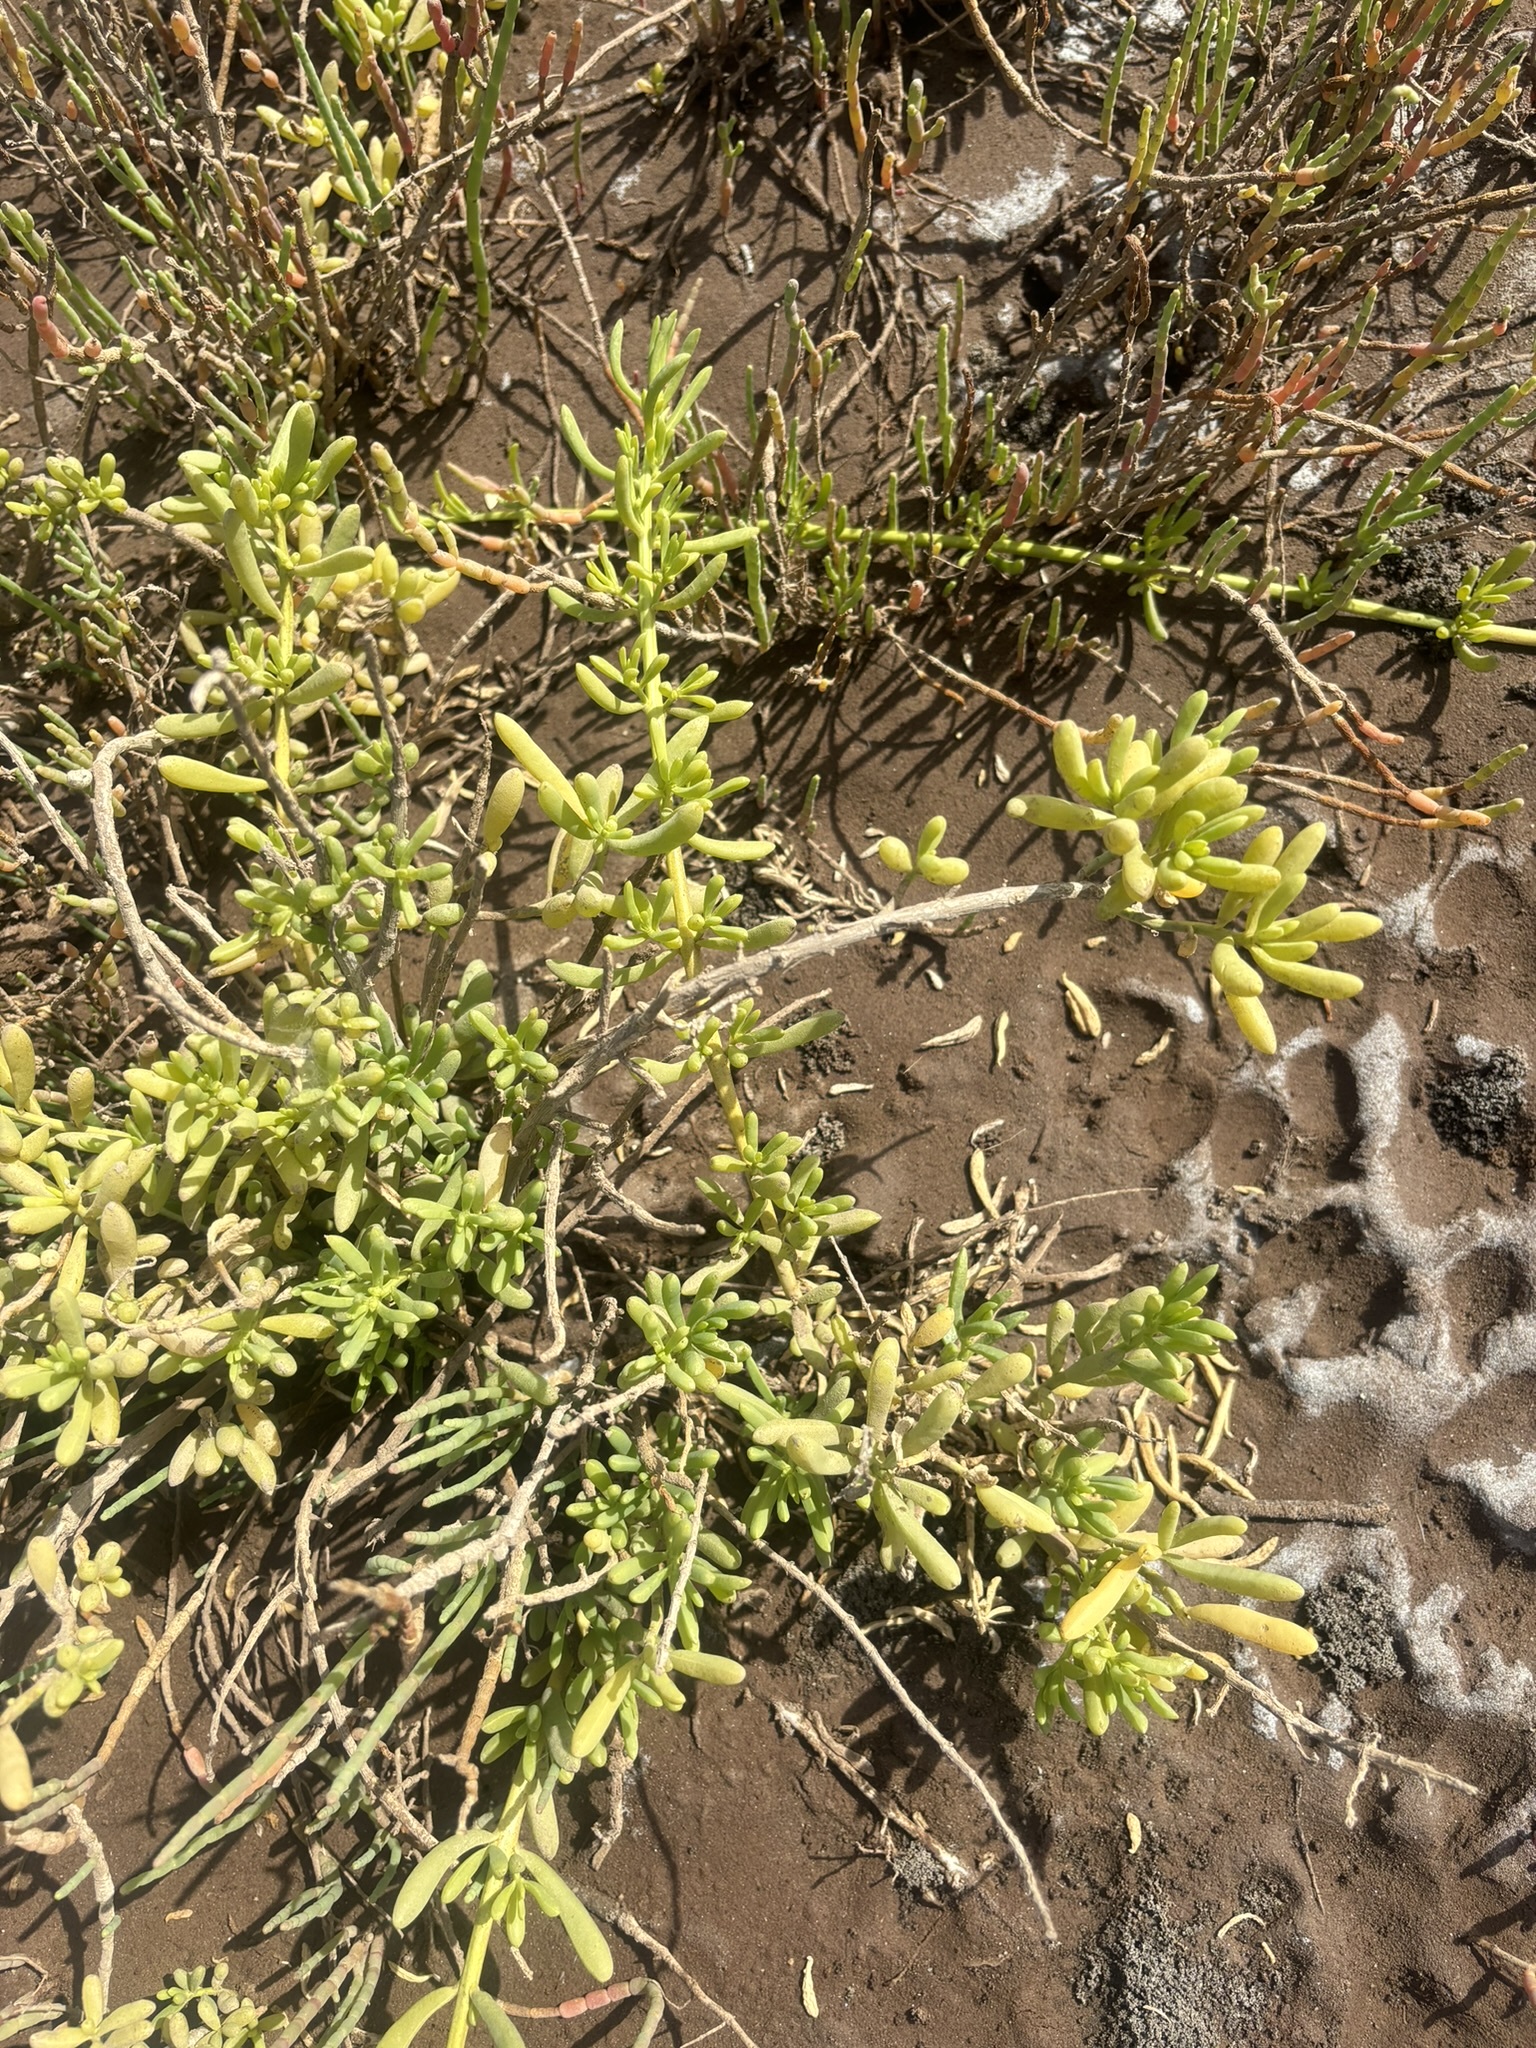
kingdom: Plantae
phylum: Tracheophyta
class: Magnoliopsida
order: Brassicales
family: Bataceae
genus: Batis
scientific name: Batis maritima
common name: Turtleweed
